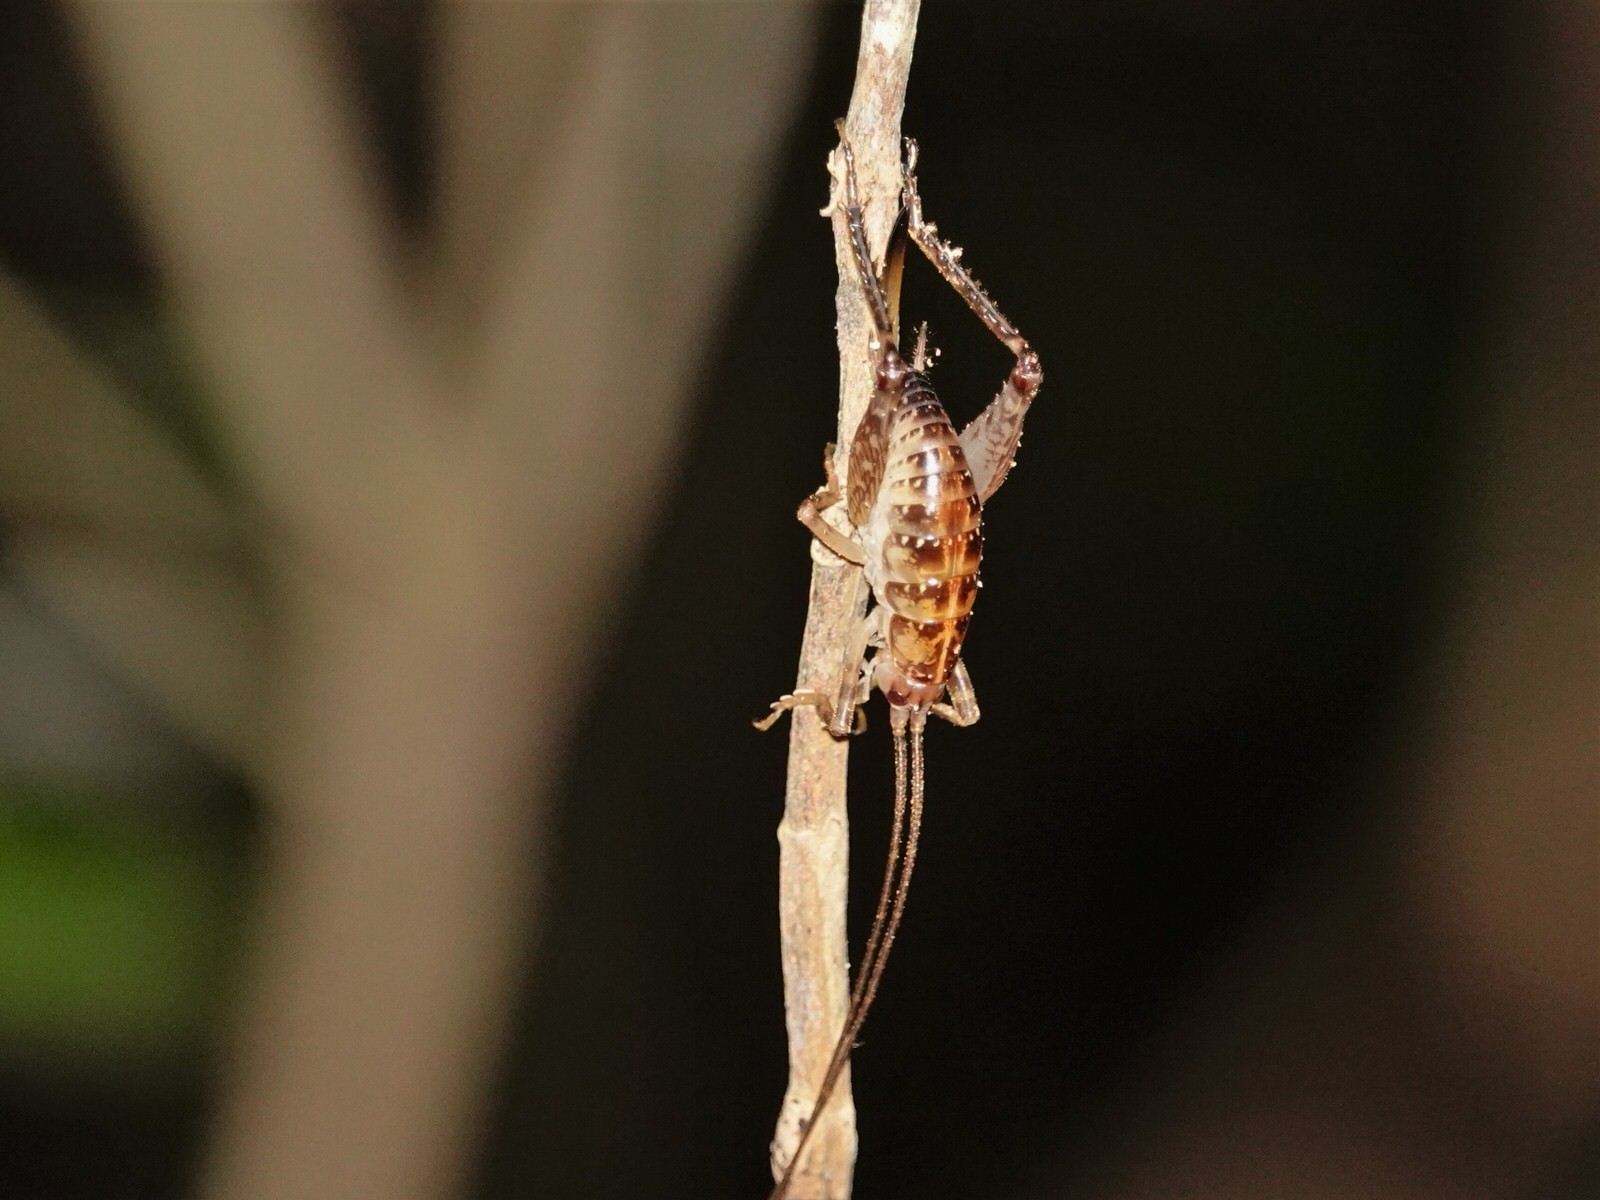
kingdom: Animalia
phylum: Arthropoda
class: Insecta
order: Orthoptera
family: Rhaphidophoridae
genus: Talitropsis
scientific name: Talitropsis sedilloti
